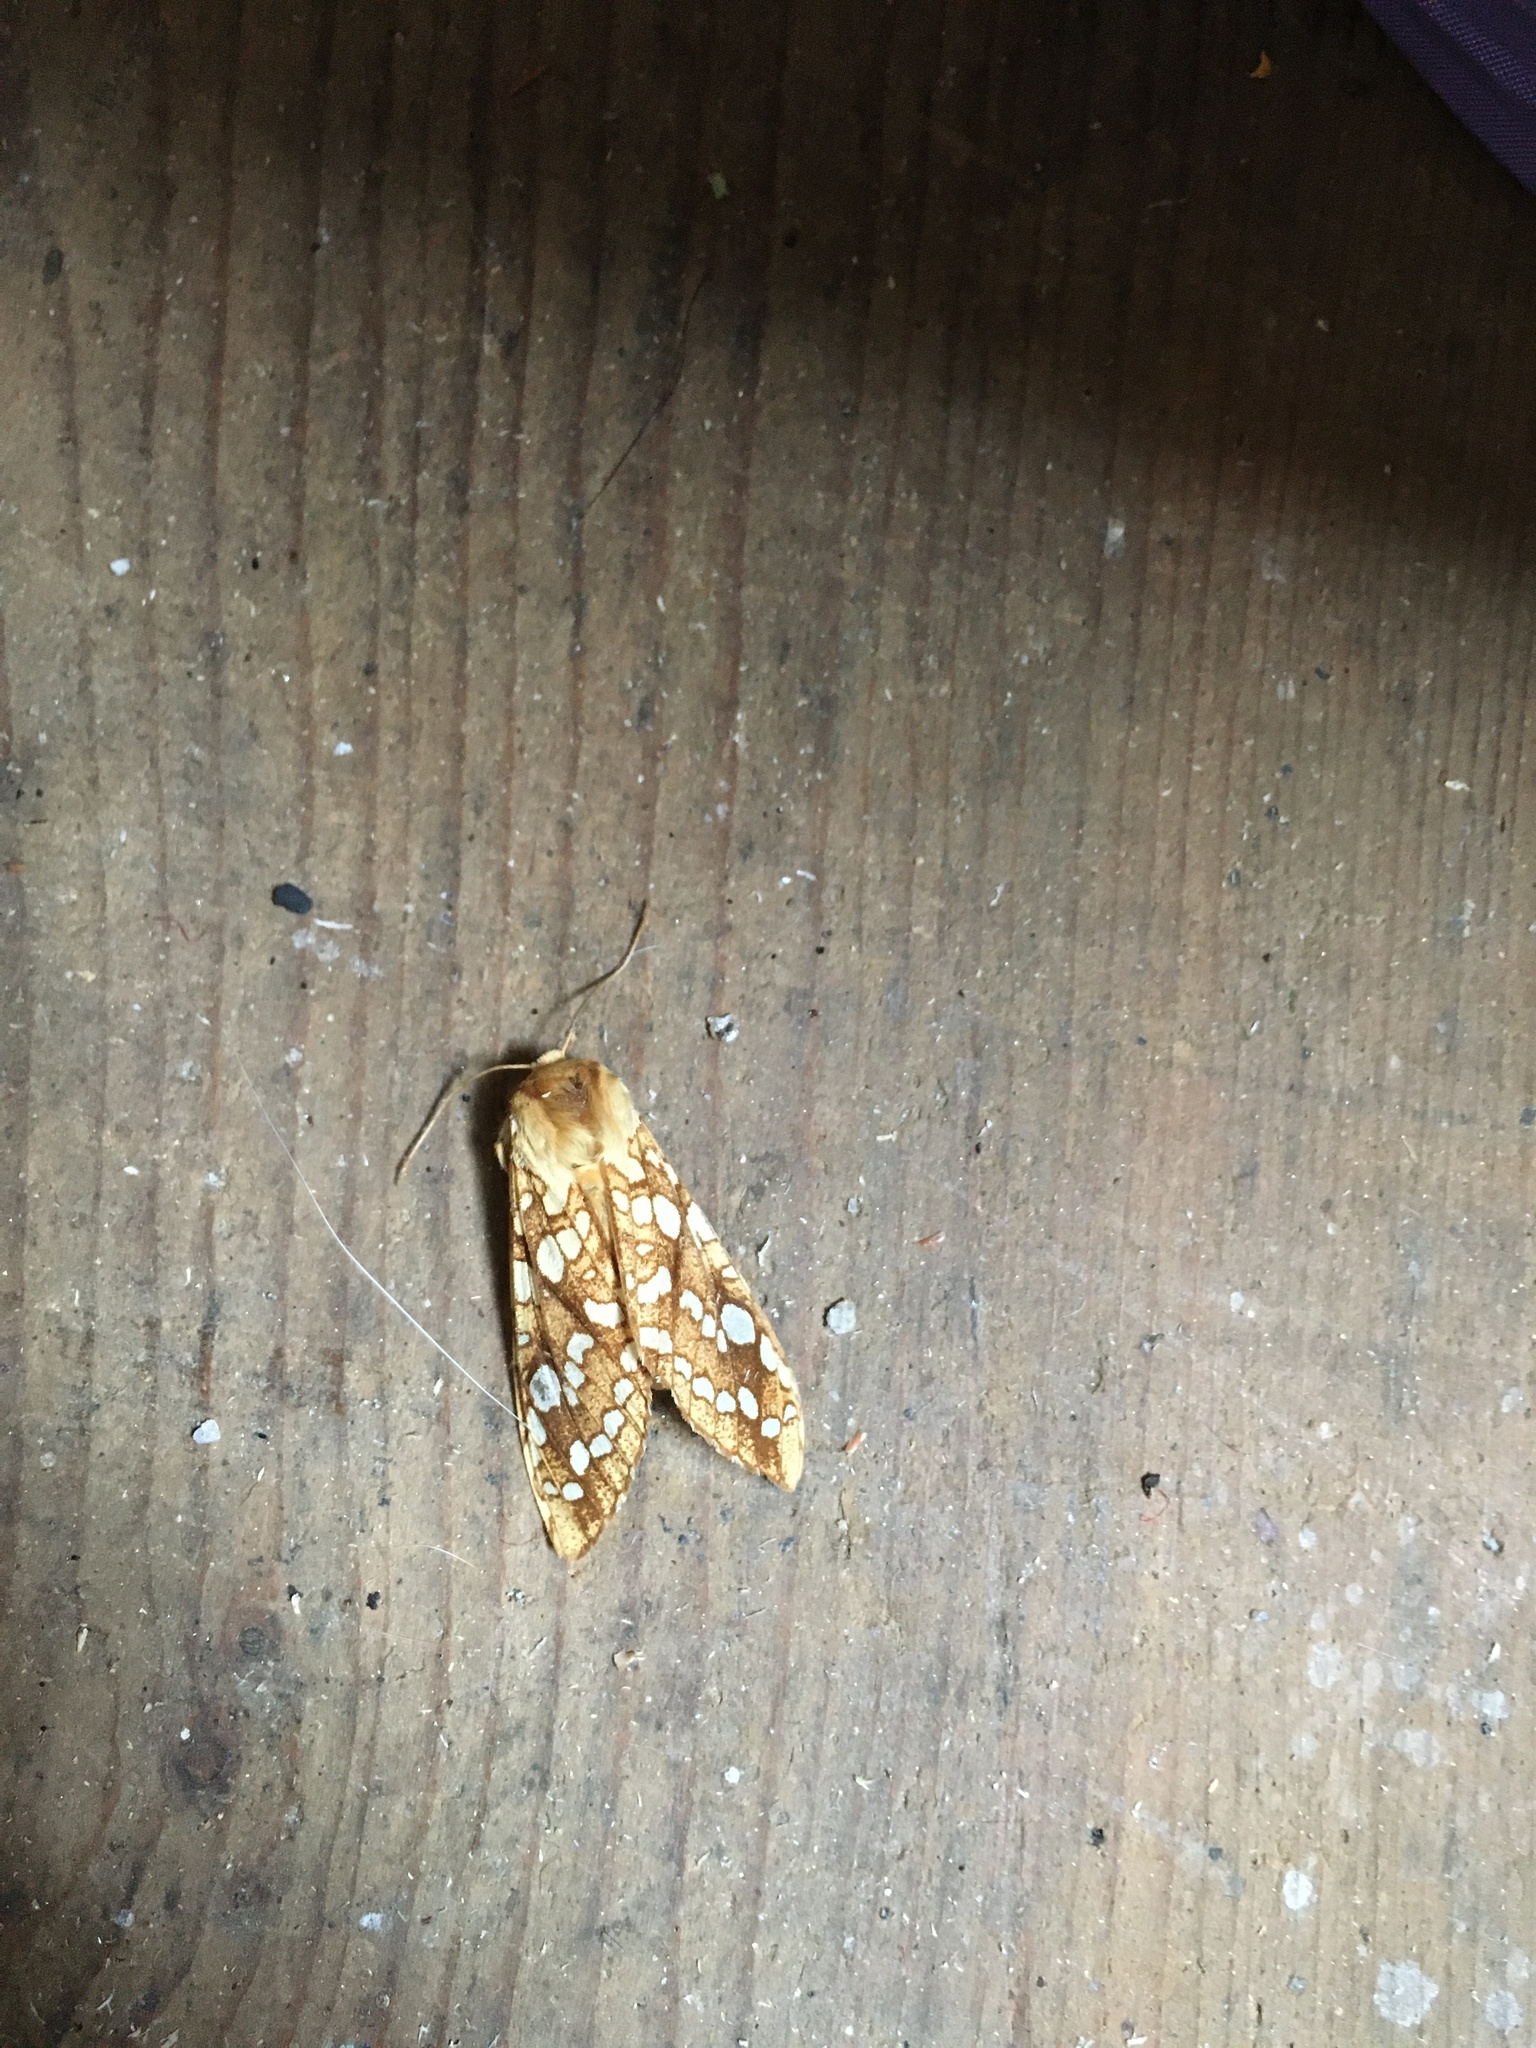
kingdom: Animalia
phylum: Arthropoda
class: Insecta
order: Lepidoptera
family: Erebidae
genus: Lophocampa
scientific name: Lophocampa caryae
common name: Hickory tussock moth
